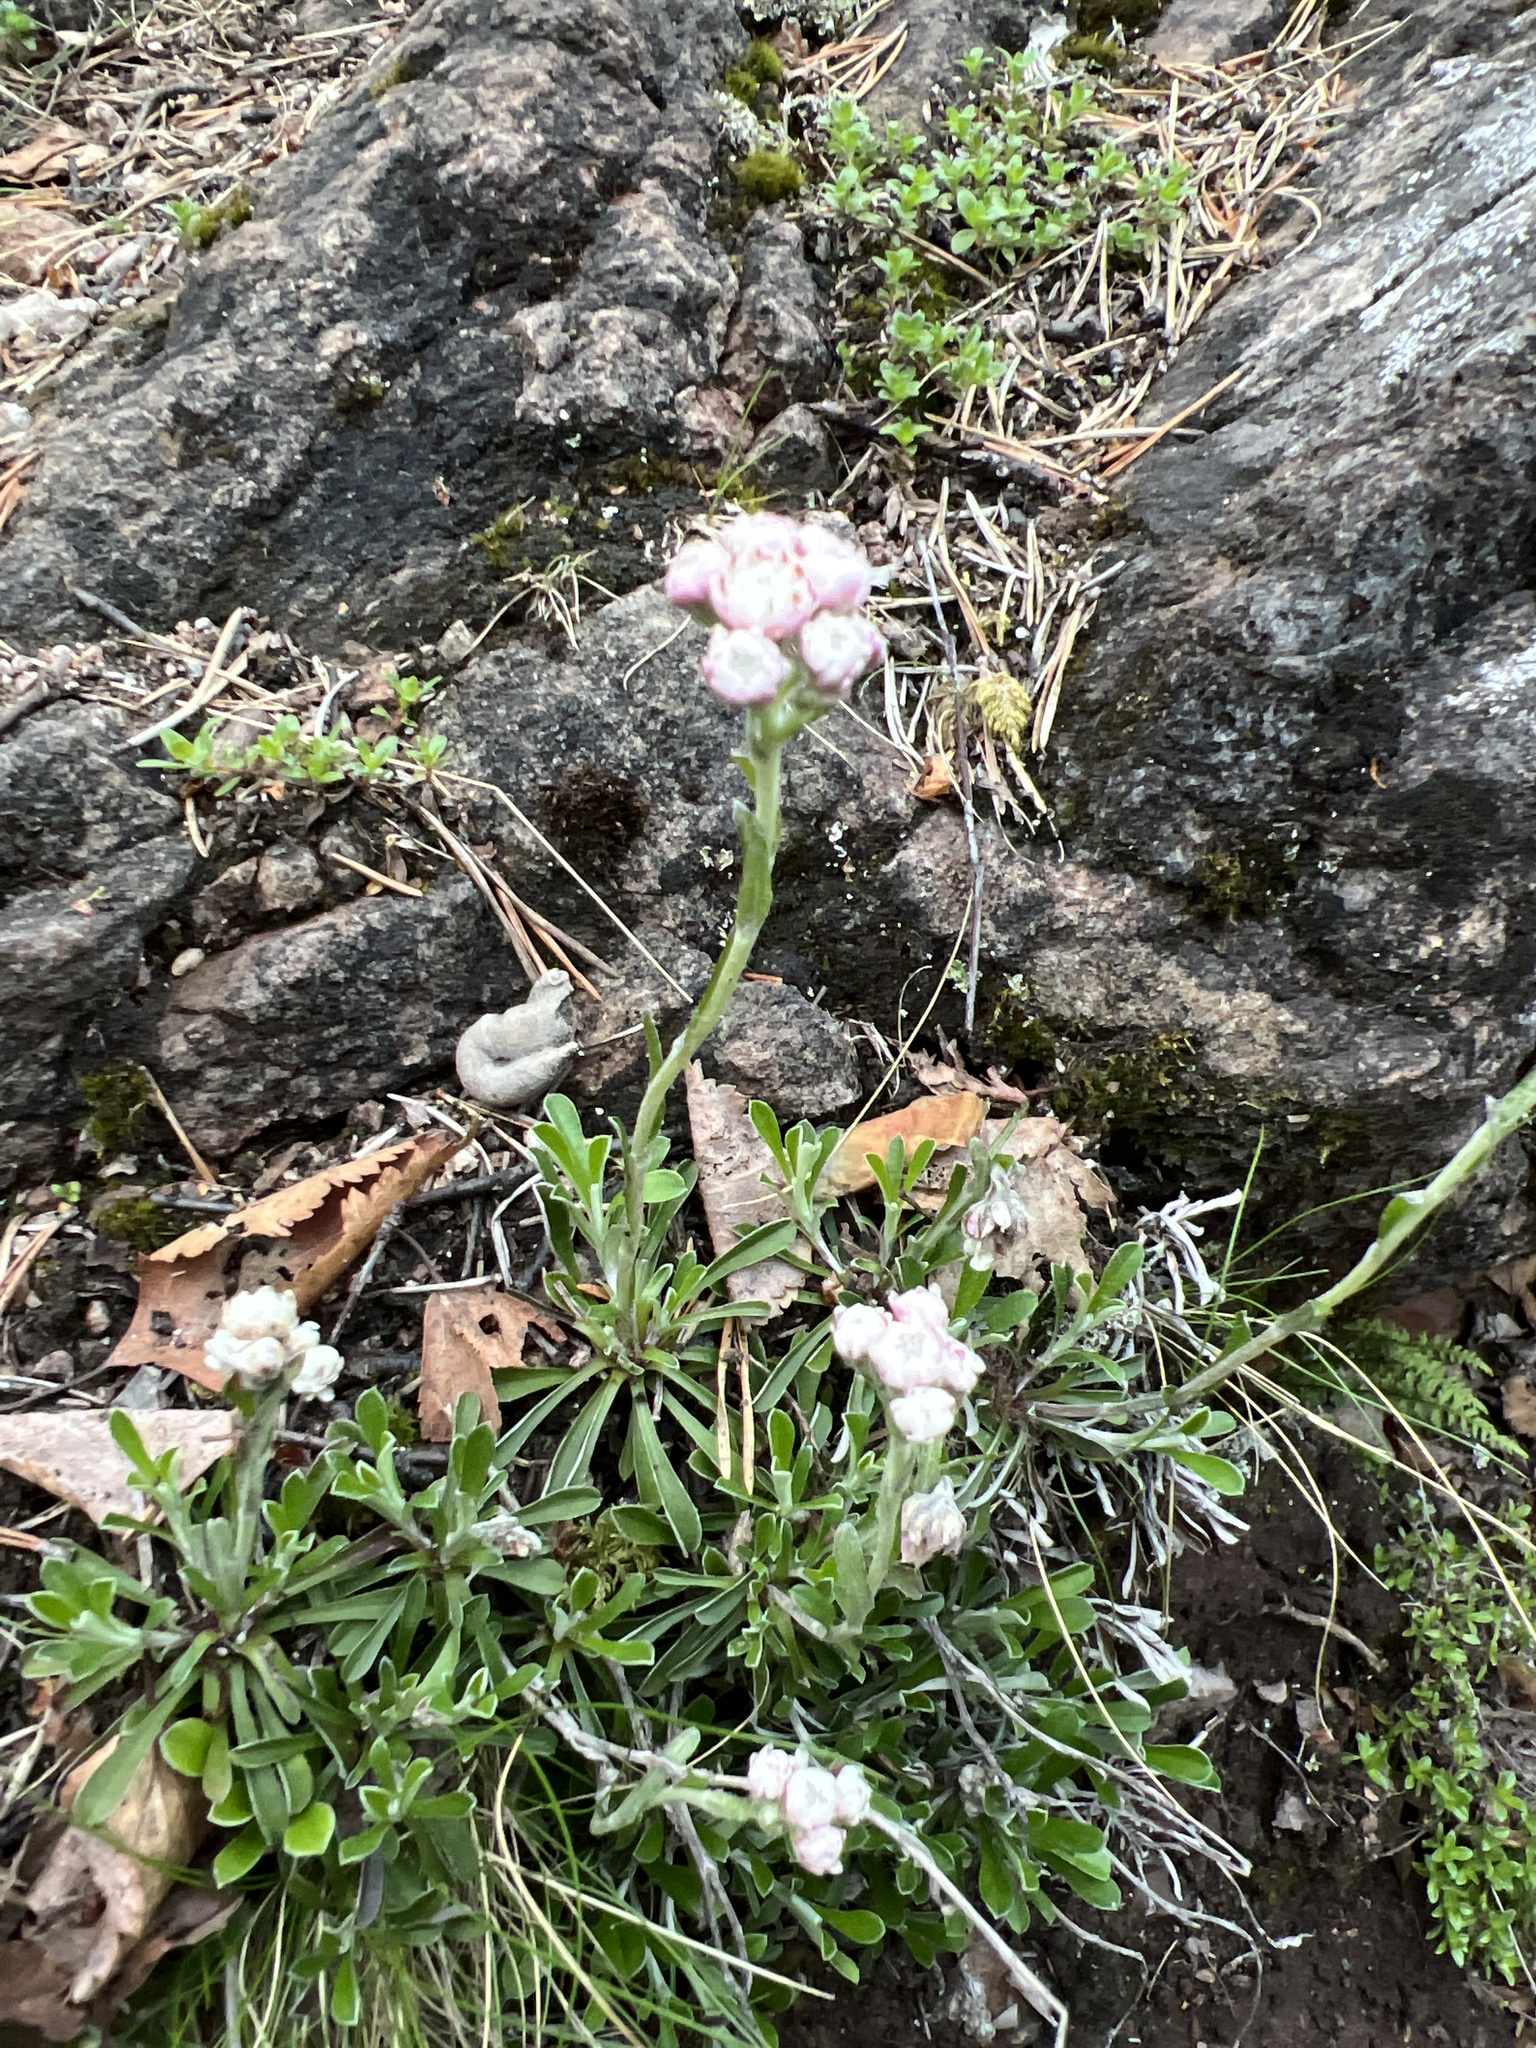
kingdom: Plantae
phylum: Tracheophyta
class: Magnoliopsida
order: Asterales
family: Asteraceae
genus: Antennaria
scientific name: Antennaria dioica
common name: Mountain everlasting
